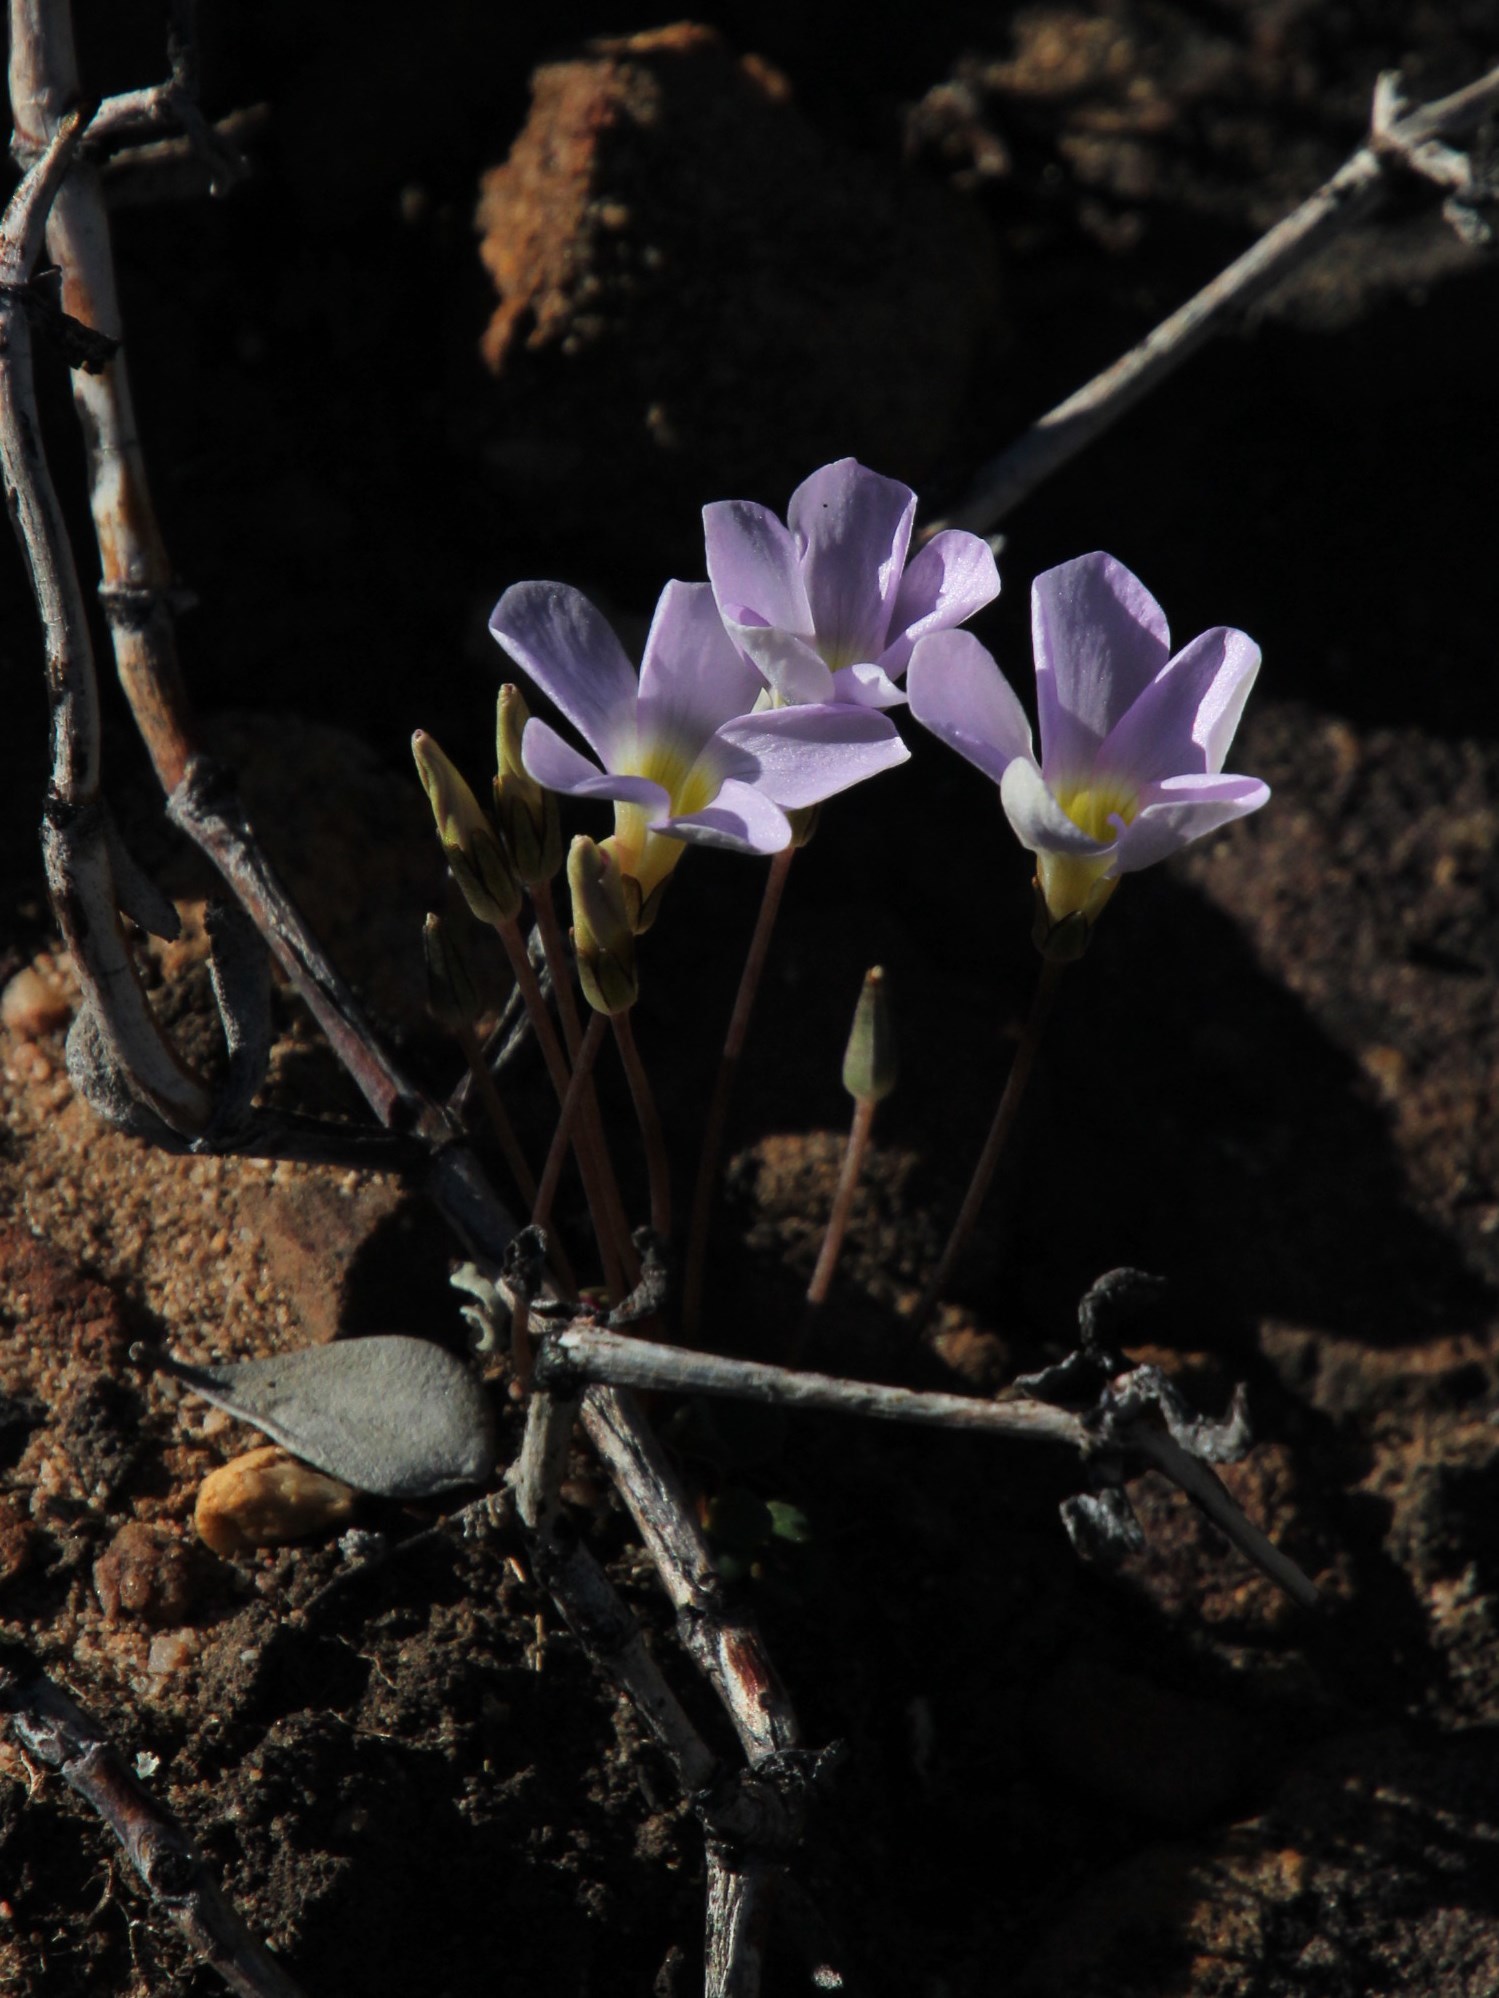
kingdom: Plantae
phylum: Tracheophyta
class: Magnoliopsida
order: Oxalidales
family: Oxalidaceae
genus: Oxalis
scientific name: Oxalis pocockiae
